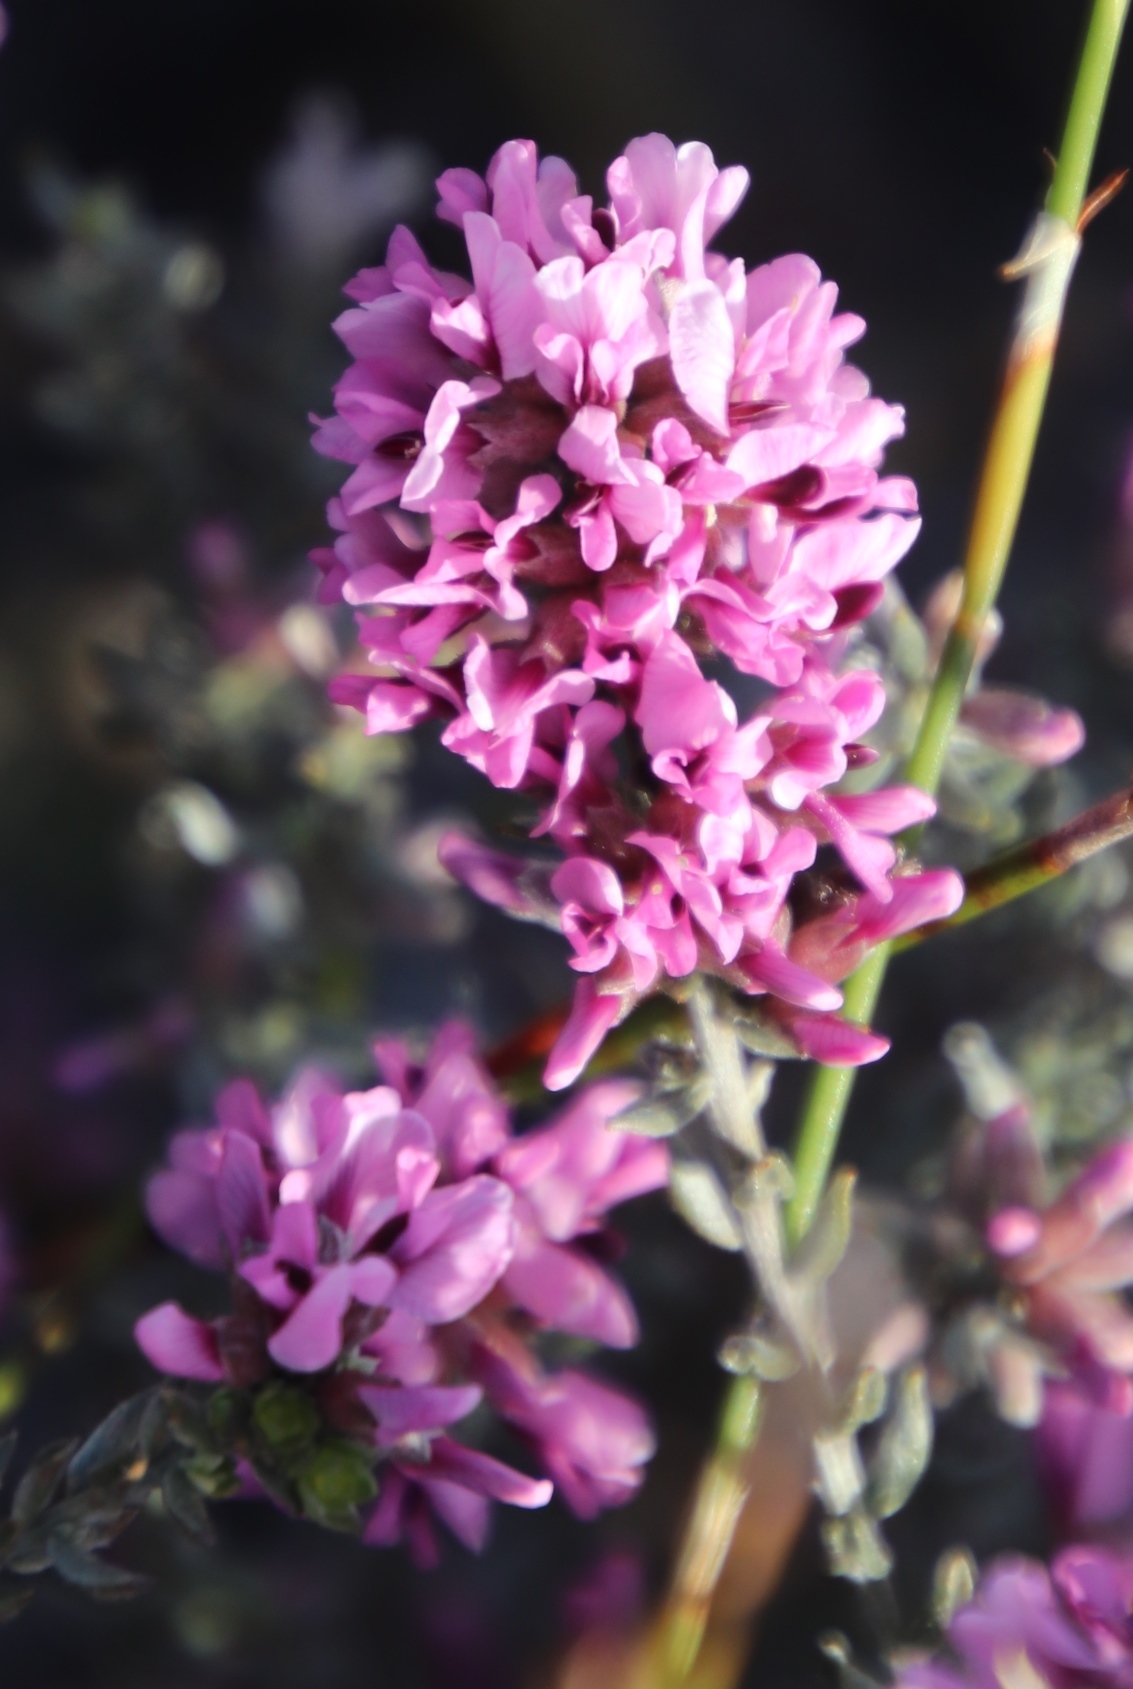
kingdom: Plantae
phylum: Tracheophyta
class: Magnoliopsida
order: Fabales
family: Fabaceae
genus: Amphithalea
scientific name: Amphithalea ericifolia
